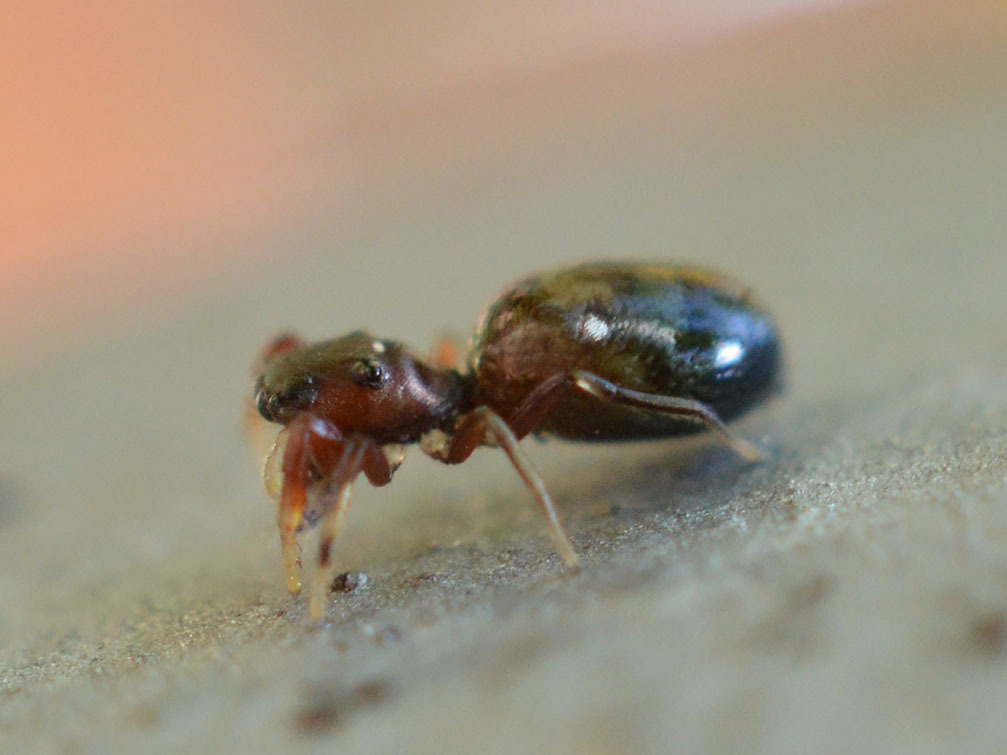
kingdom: Animalia
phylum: Arthropoda
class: Arachnida
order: Araneae
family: Salticidae
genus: Synageles
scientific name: Synageles dalmaticus
